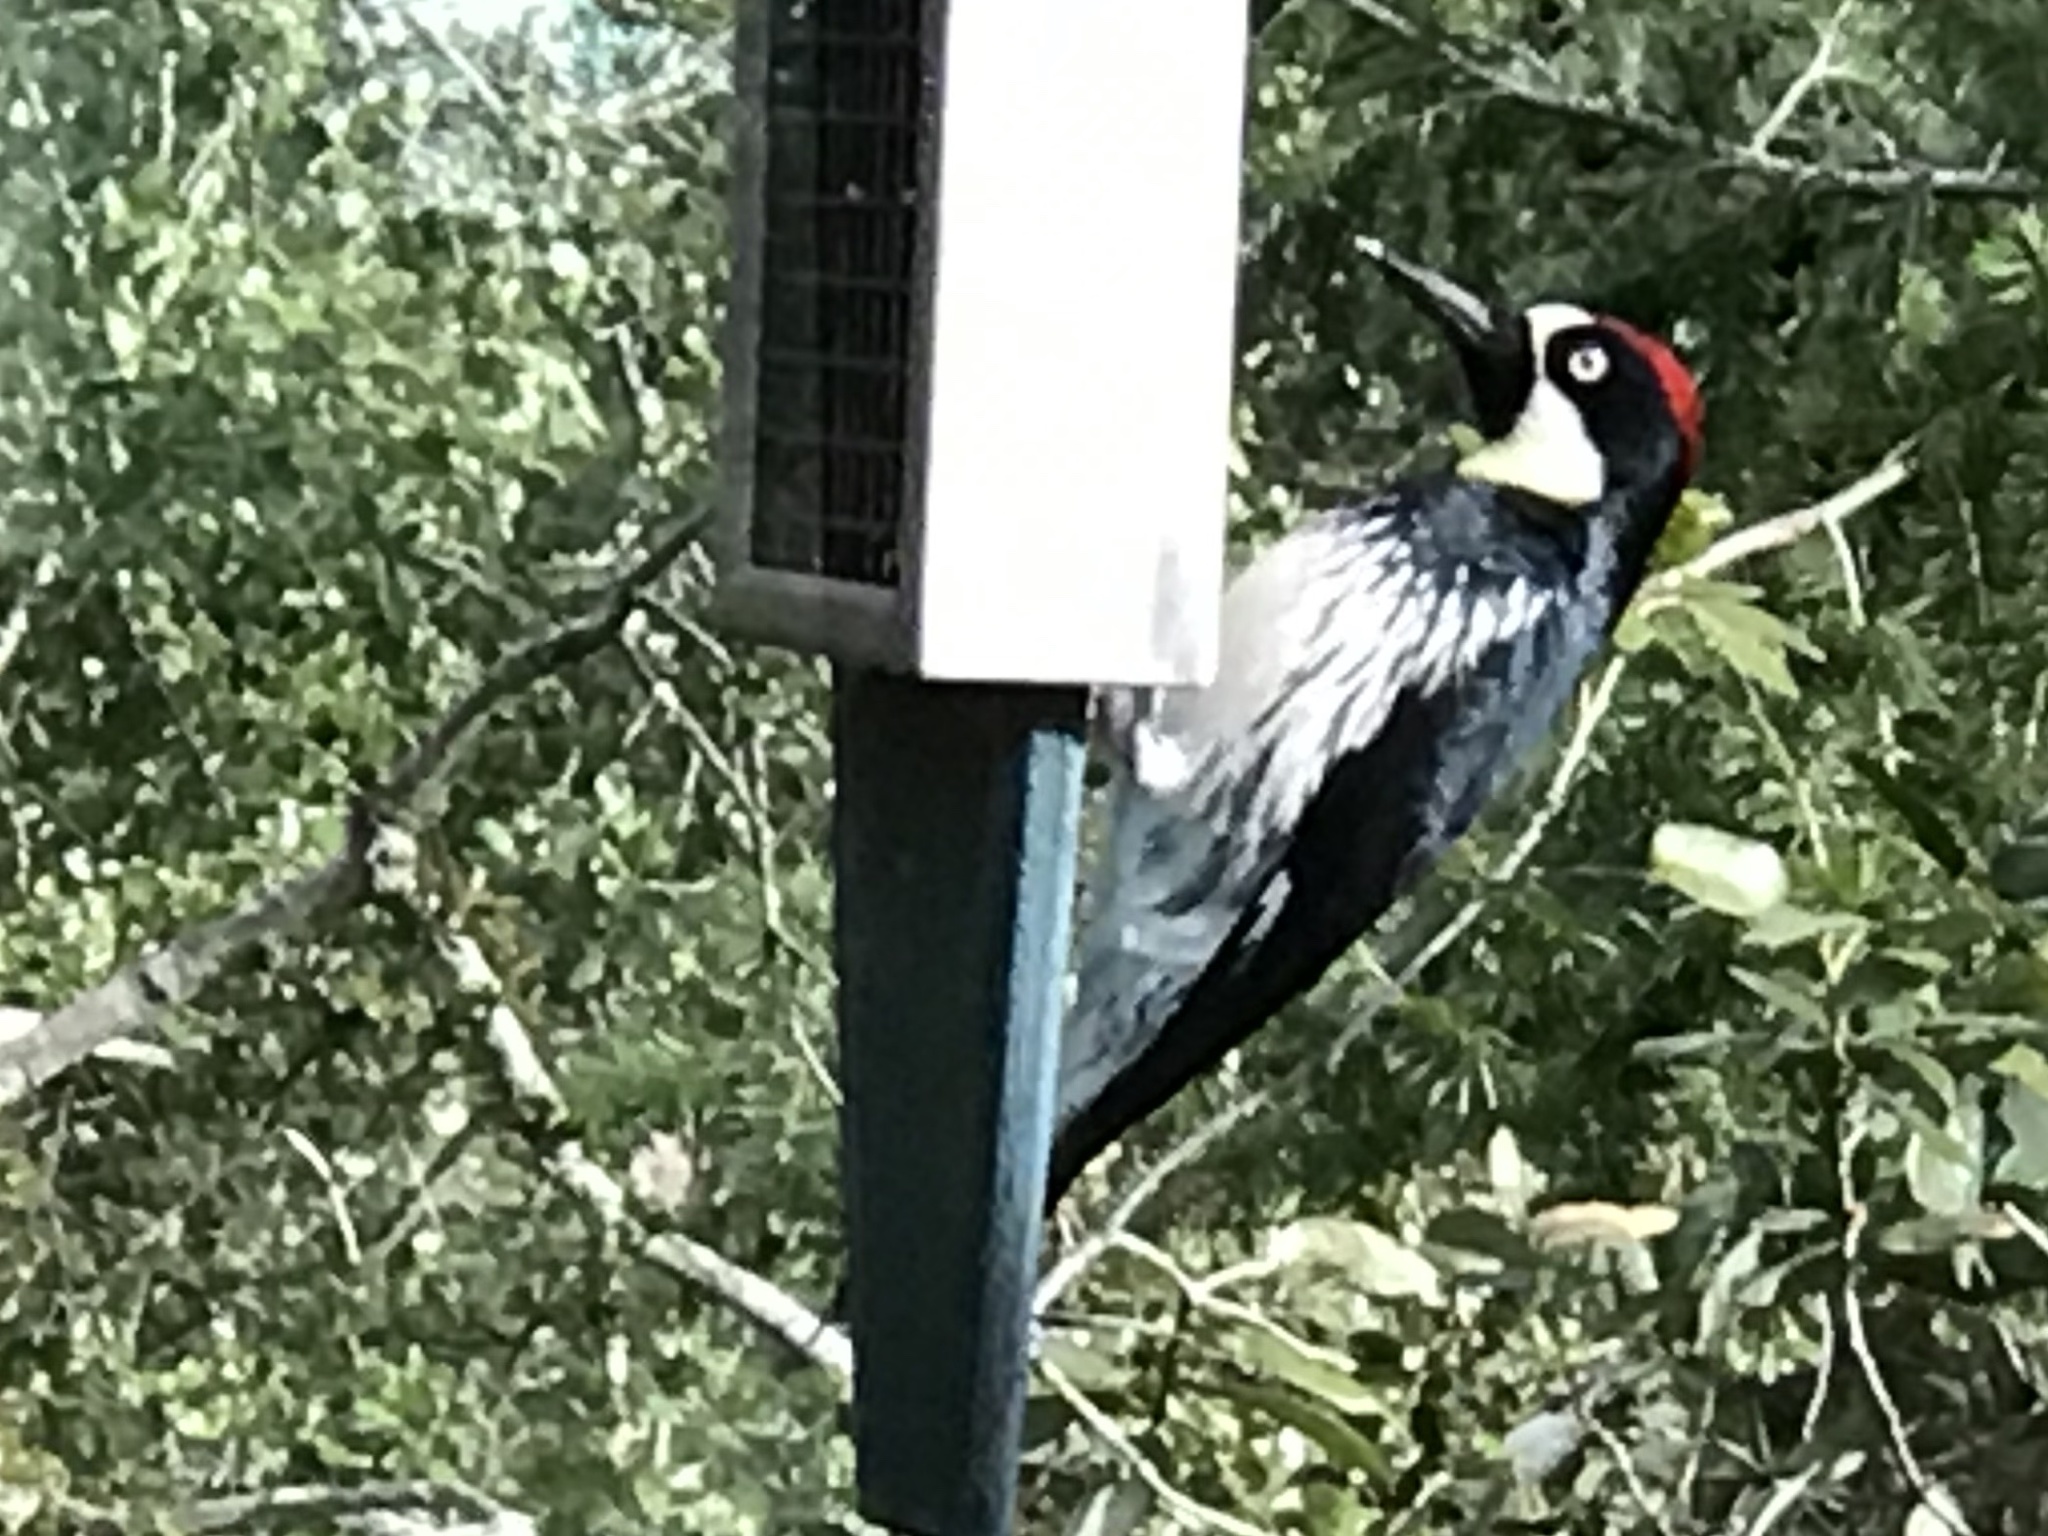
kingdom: Animalia
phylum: Chordata
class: Aves
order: Piciformes
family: Picidae
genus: Melanerpes
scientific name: Melanerpes formicivorus
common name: Acorn woodpecker
